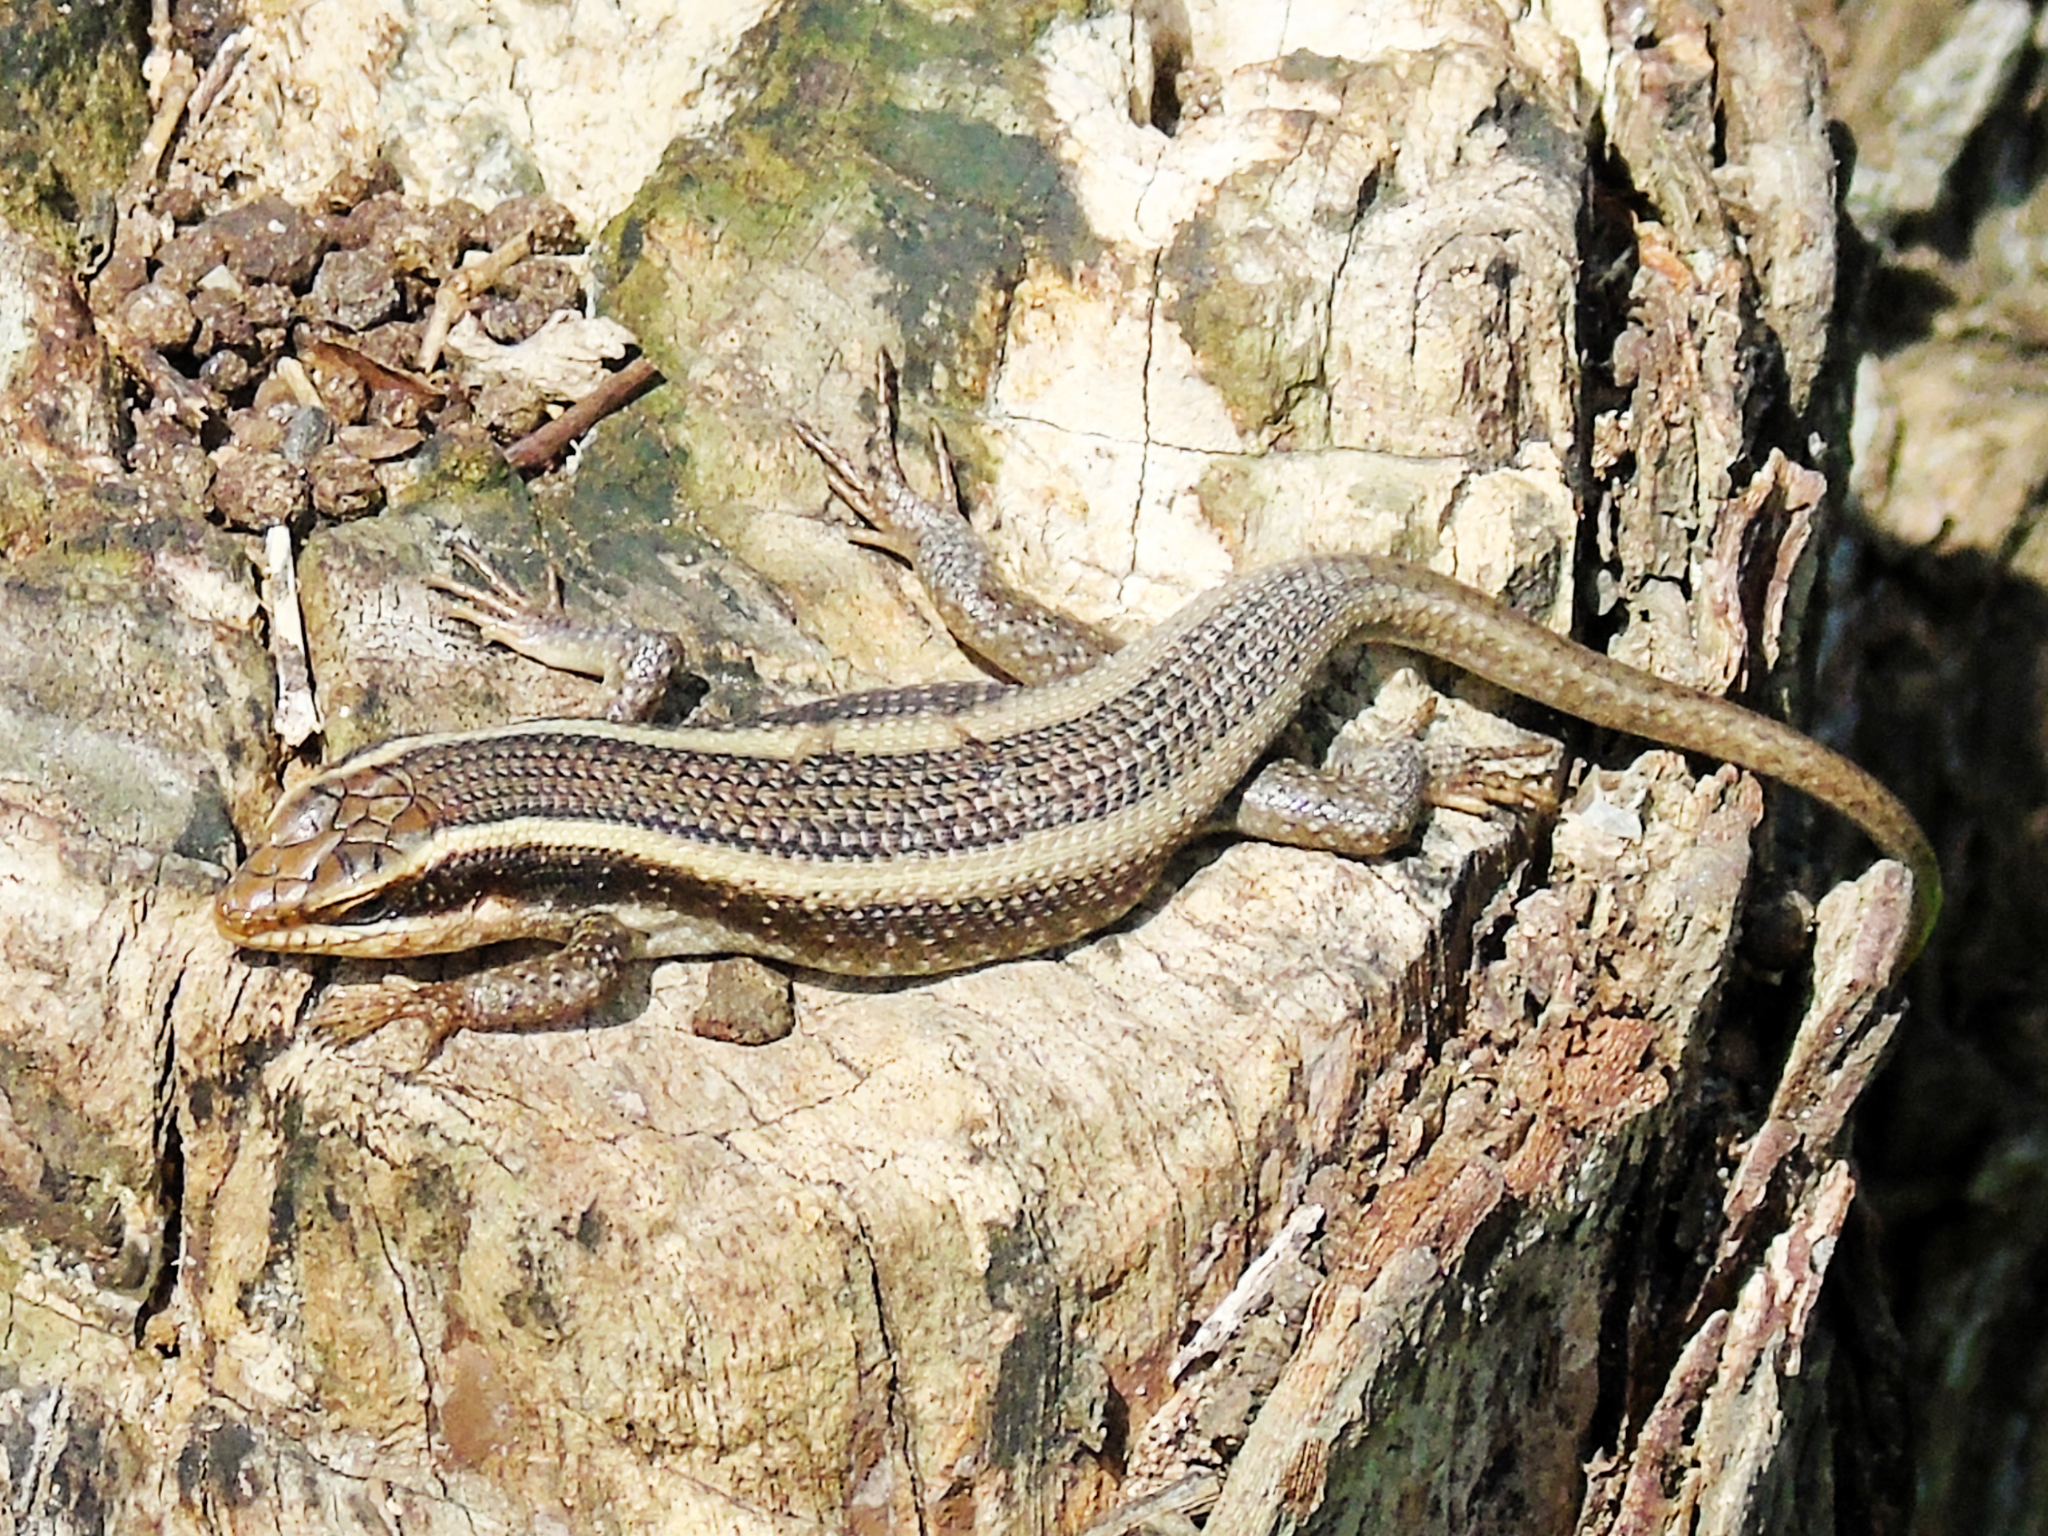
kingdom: Animalia
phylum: Chordata
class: Squamata
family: Scincidae
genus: Trachylepis
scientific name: Trachylepis striata
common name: African striped mabuya
